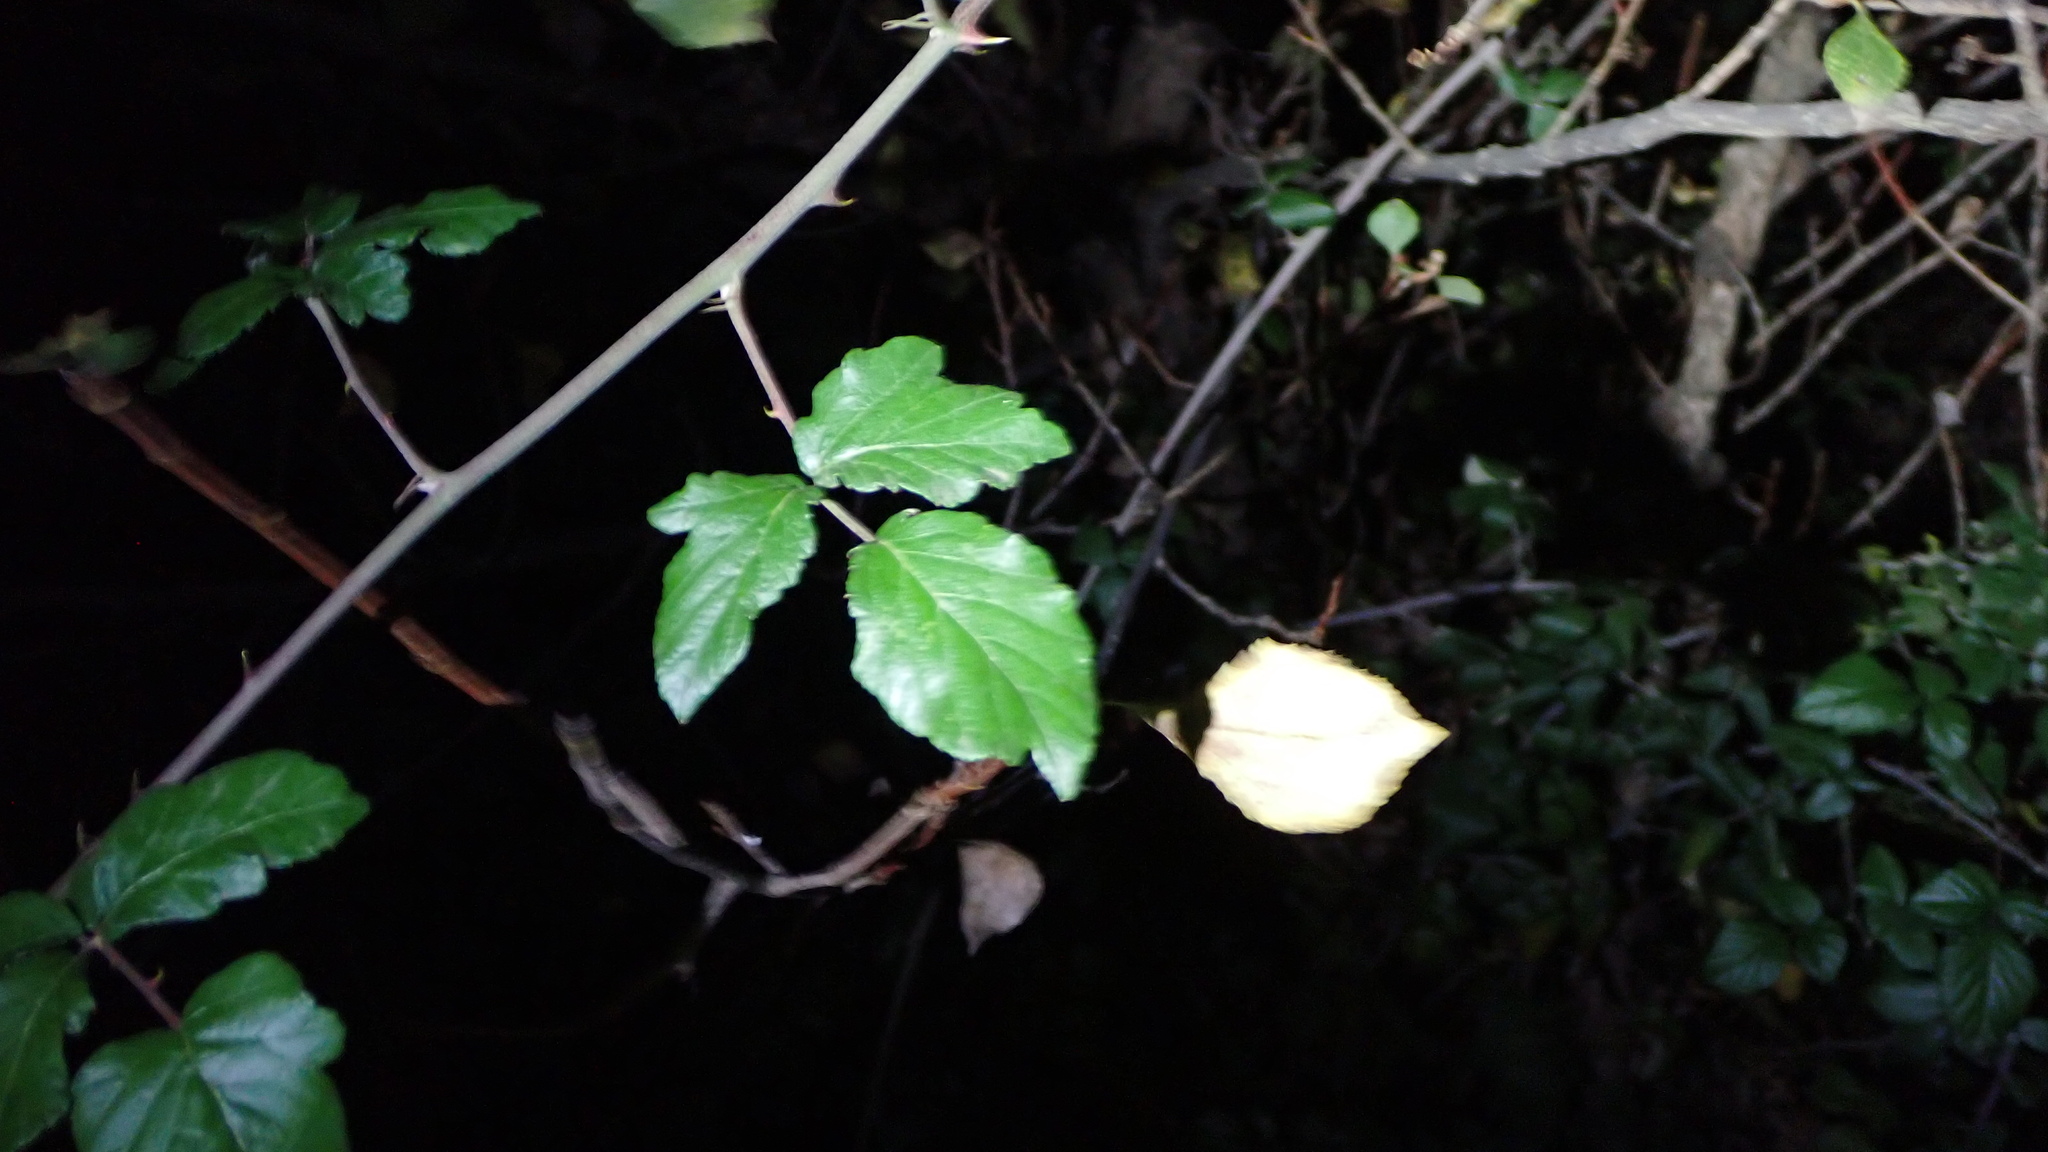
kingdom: Plantae
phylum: Tracheophyta
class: Magnoliopsida
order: Rosales
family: Rosaceae
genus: Rubus
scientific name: Rubus ulmifolius
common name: Elmleaf blackberry
